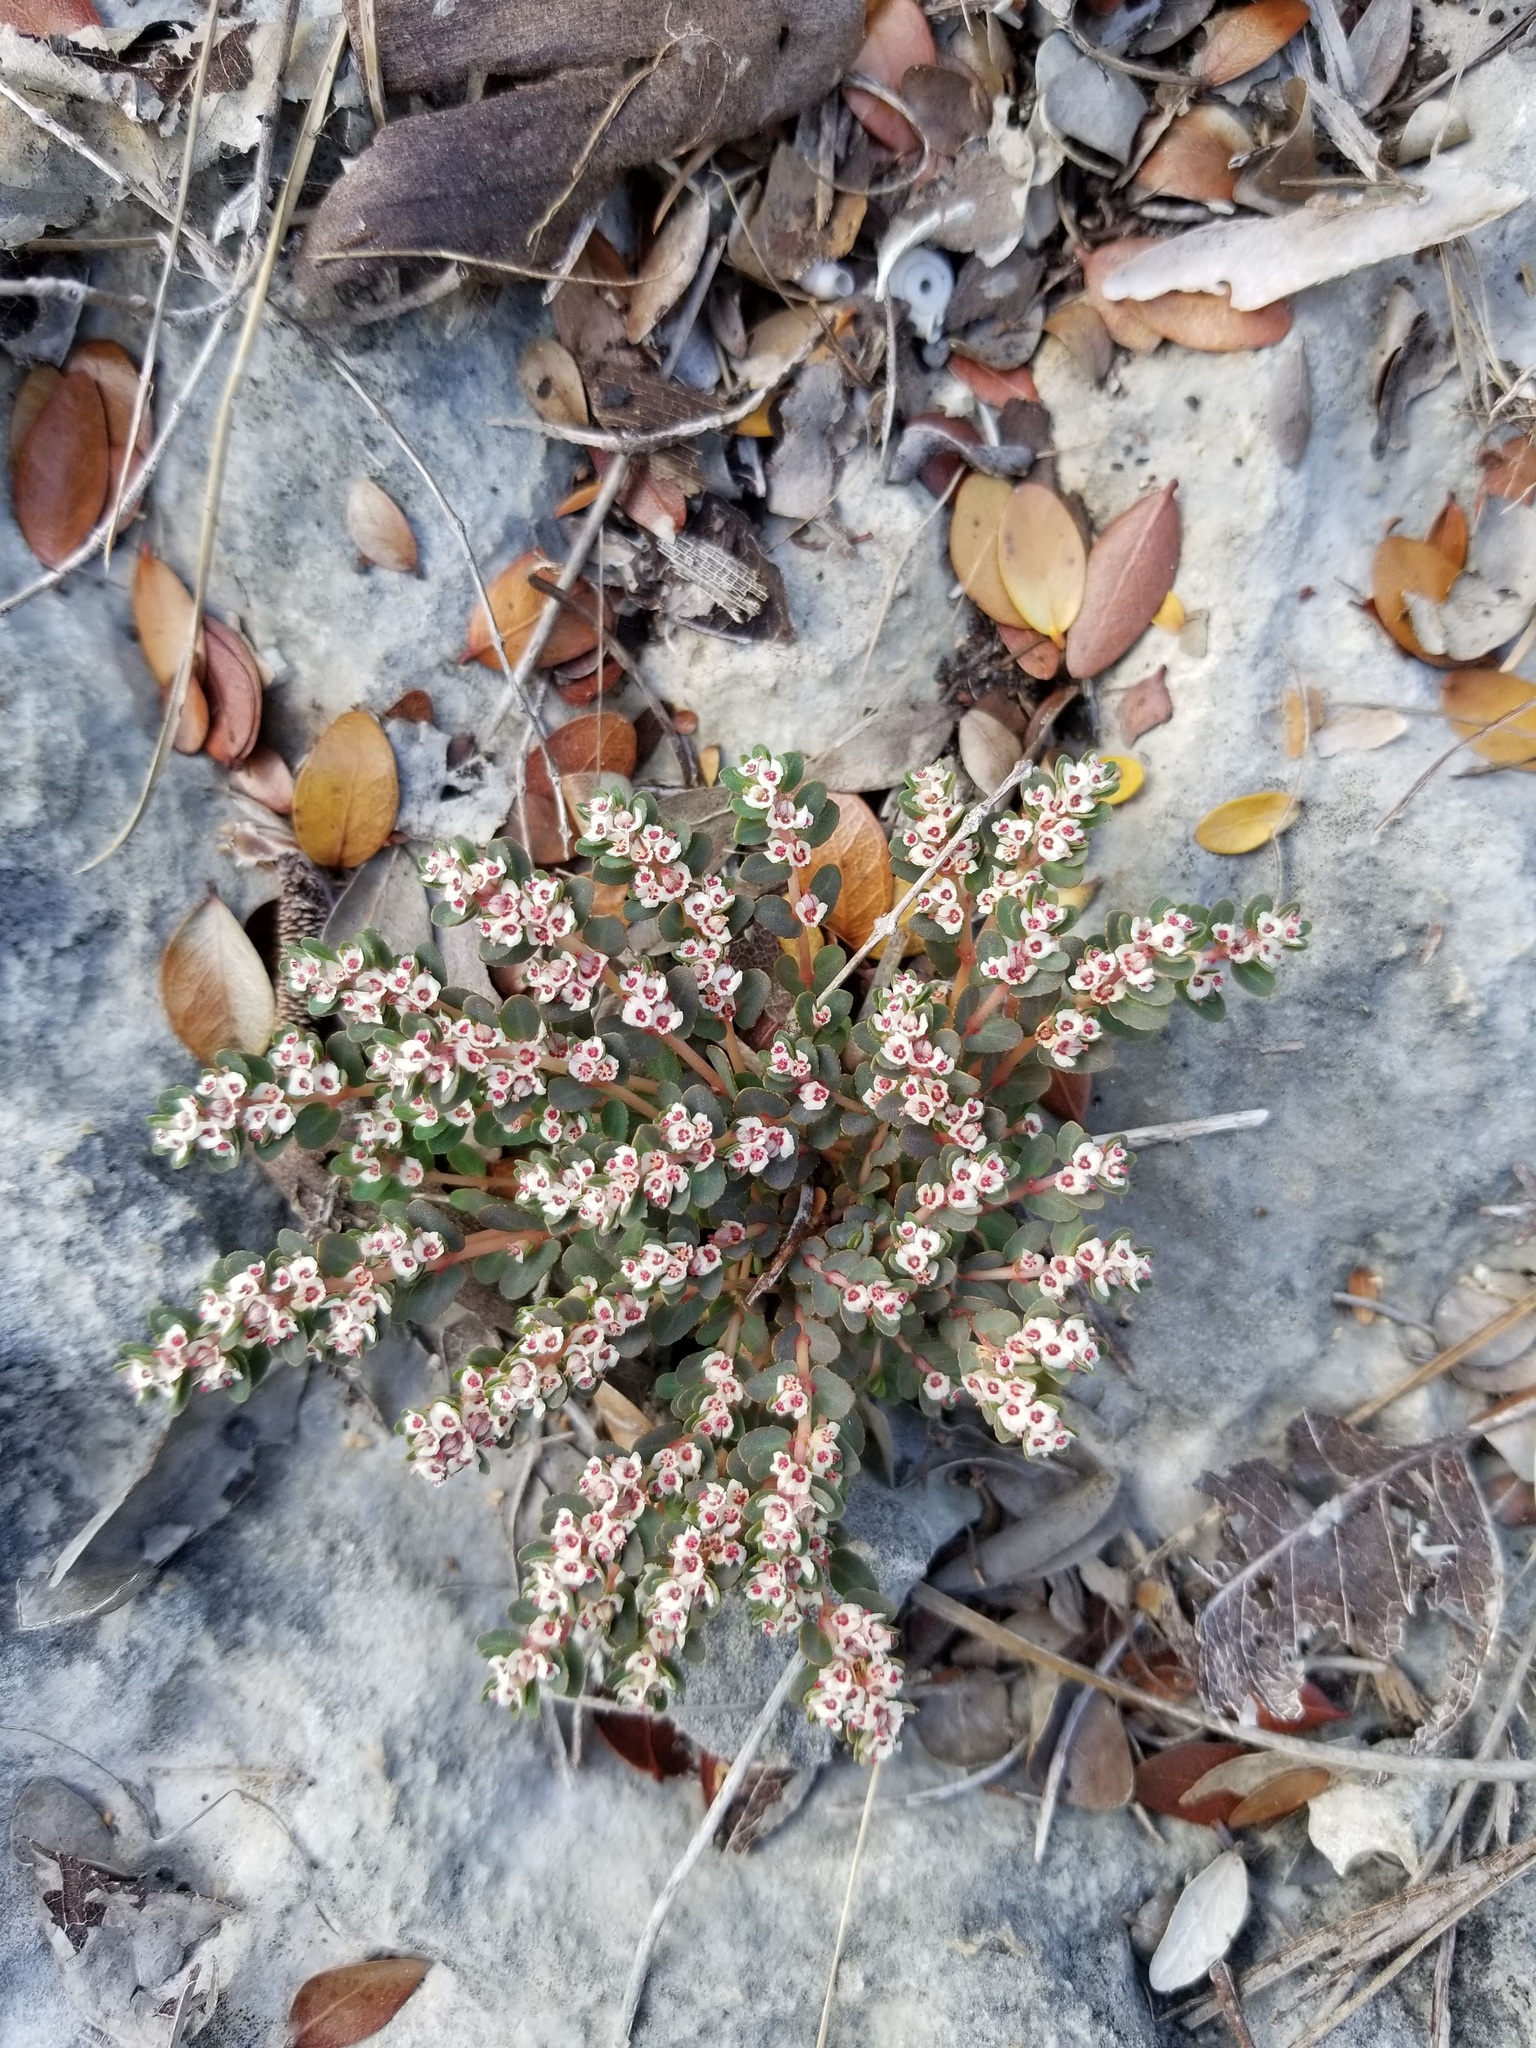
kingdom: Plantae
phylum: Tracheophyta
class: Magnoliopsida
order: Malpighiales
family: Euphorbiaceae
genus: Euphorbia
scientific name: Euphorbia pergamena
